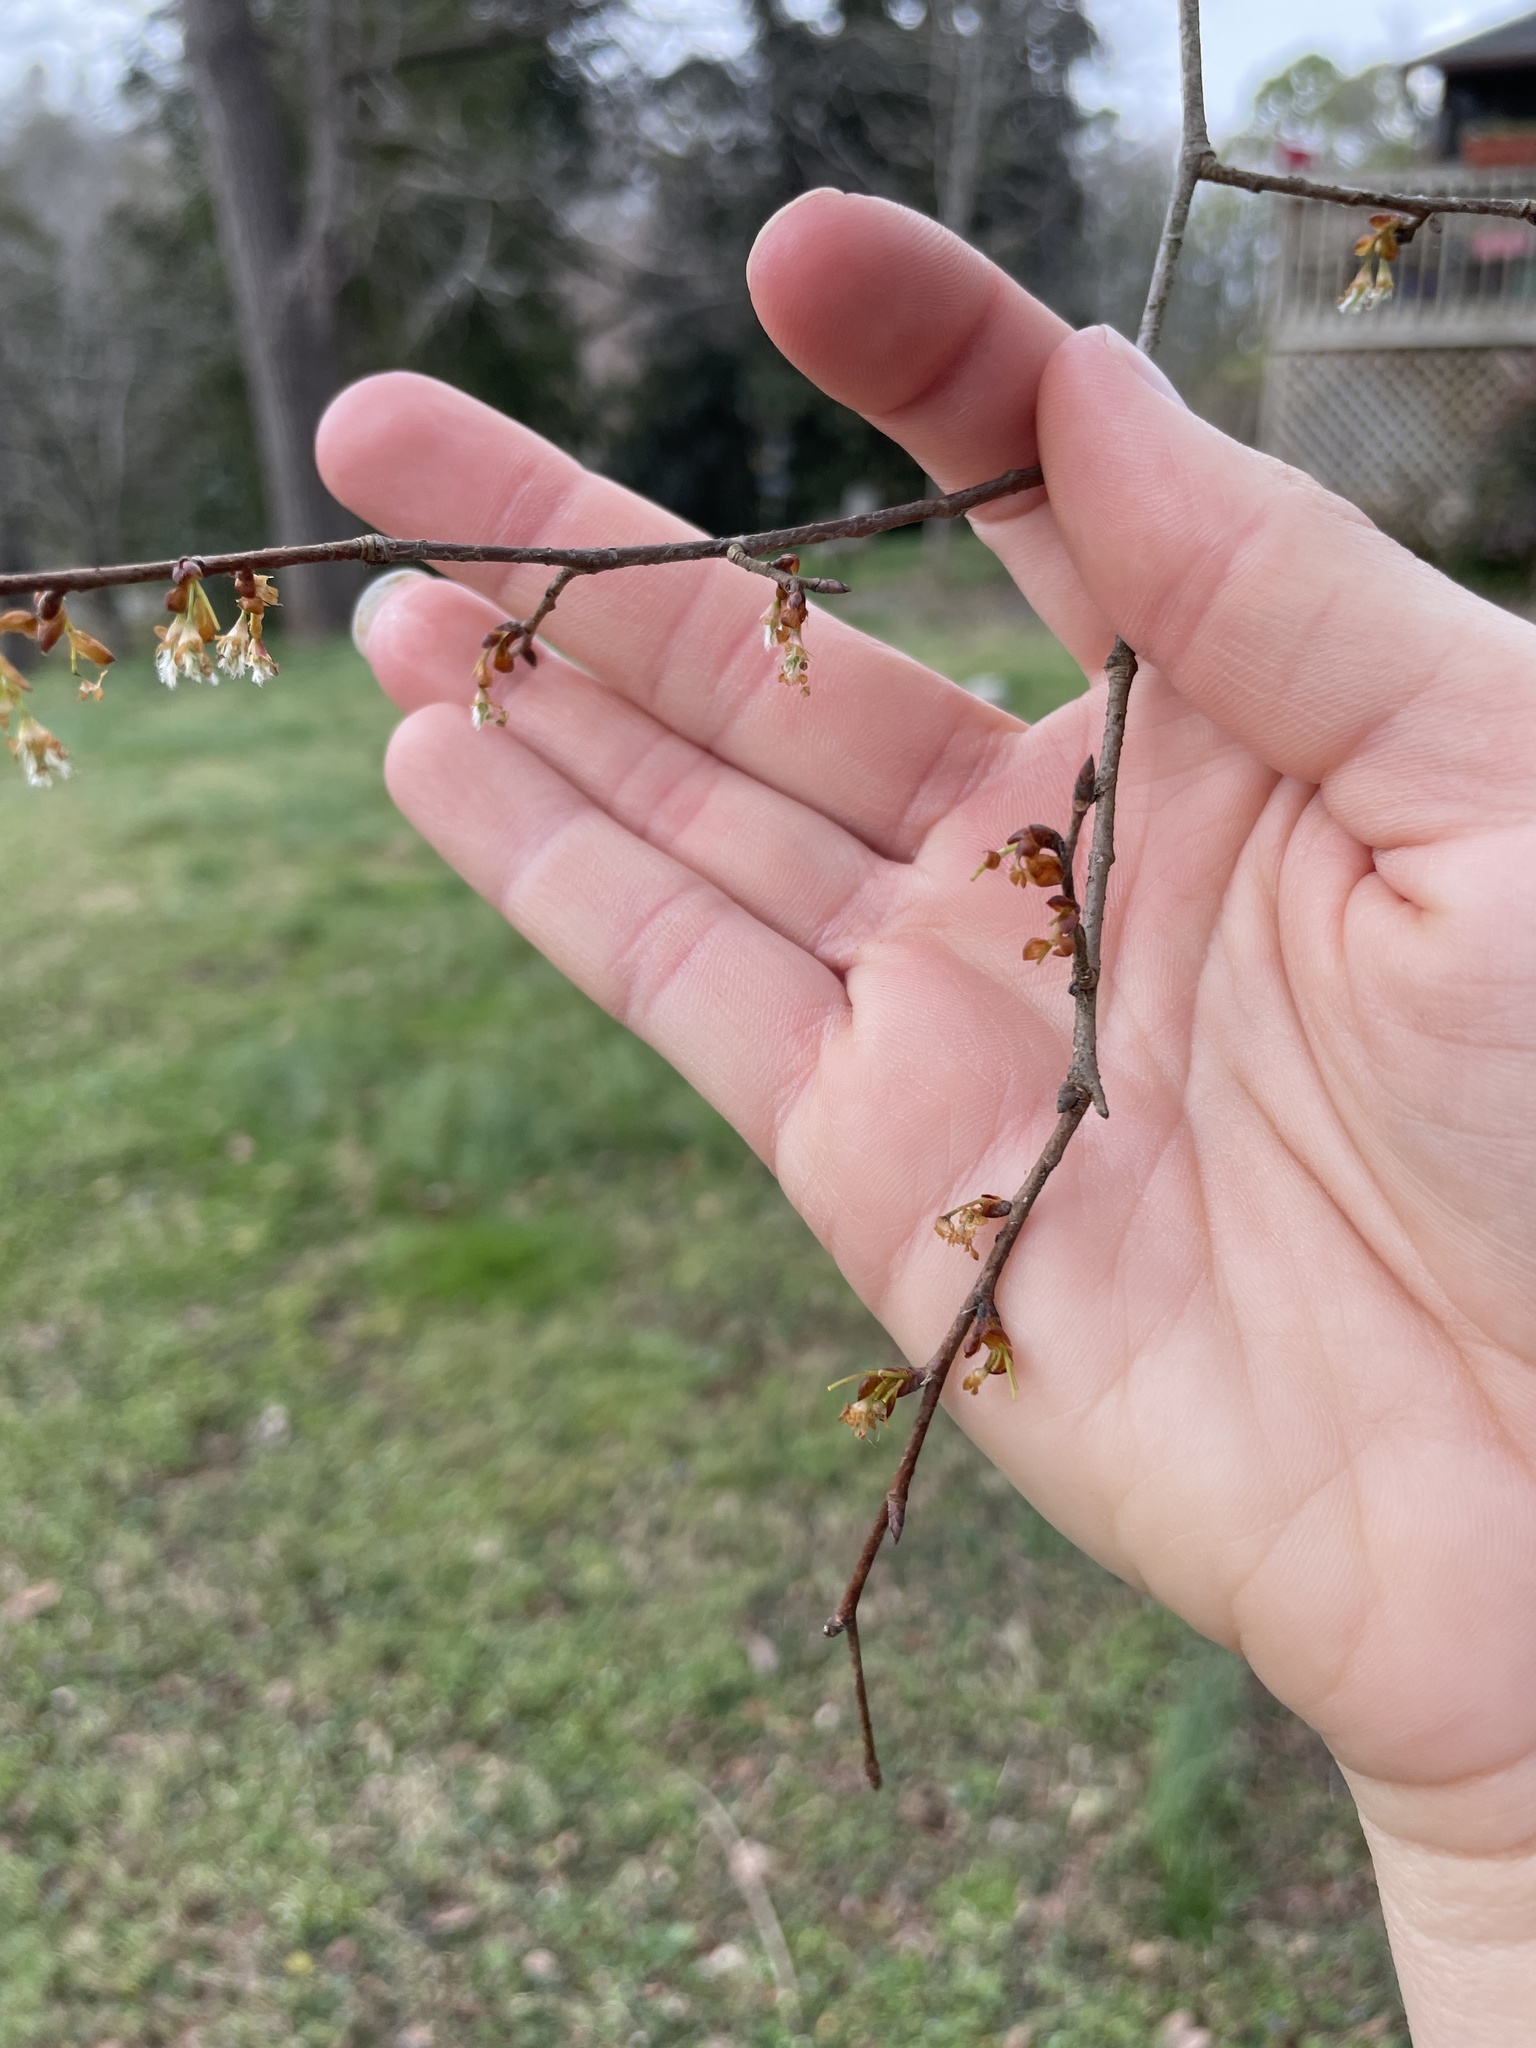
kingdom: Plantae
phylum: Tracheophyta
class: Magnoliopsida
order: Rosales
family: Ulmaceae
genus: Ulmus
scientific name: Ulmus alata
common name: Winged elm
